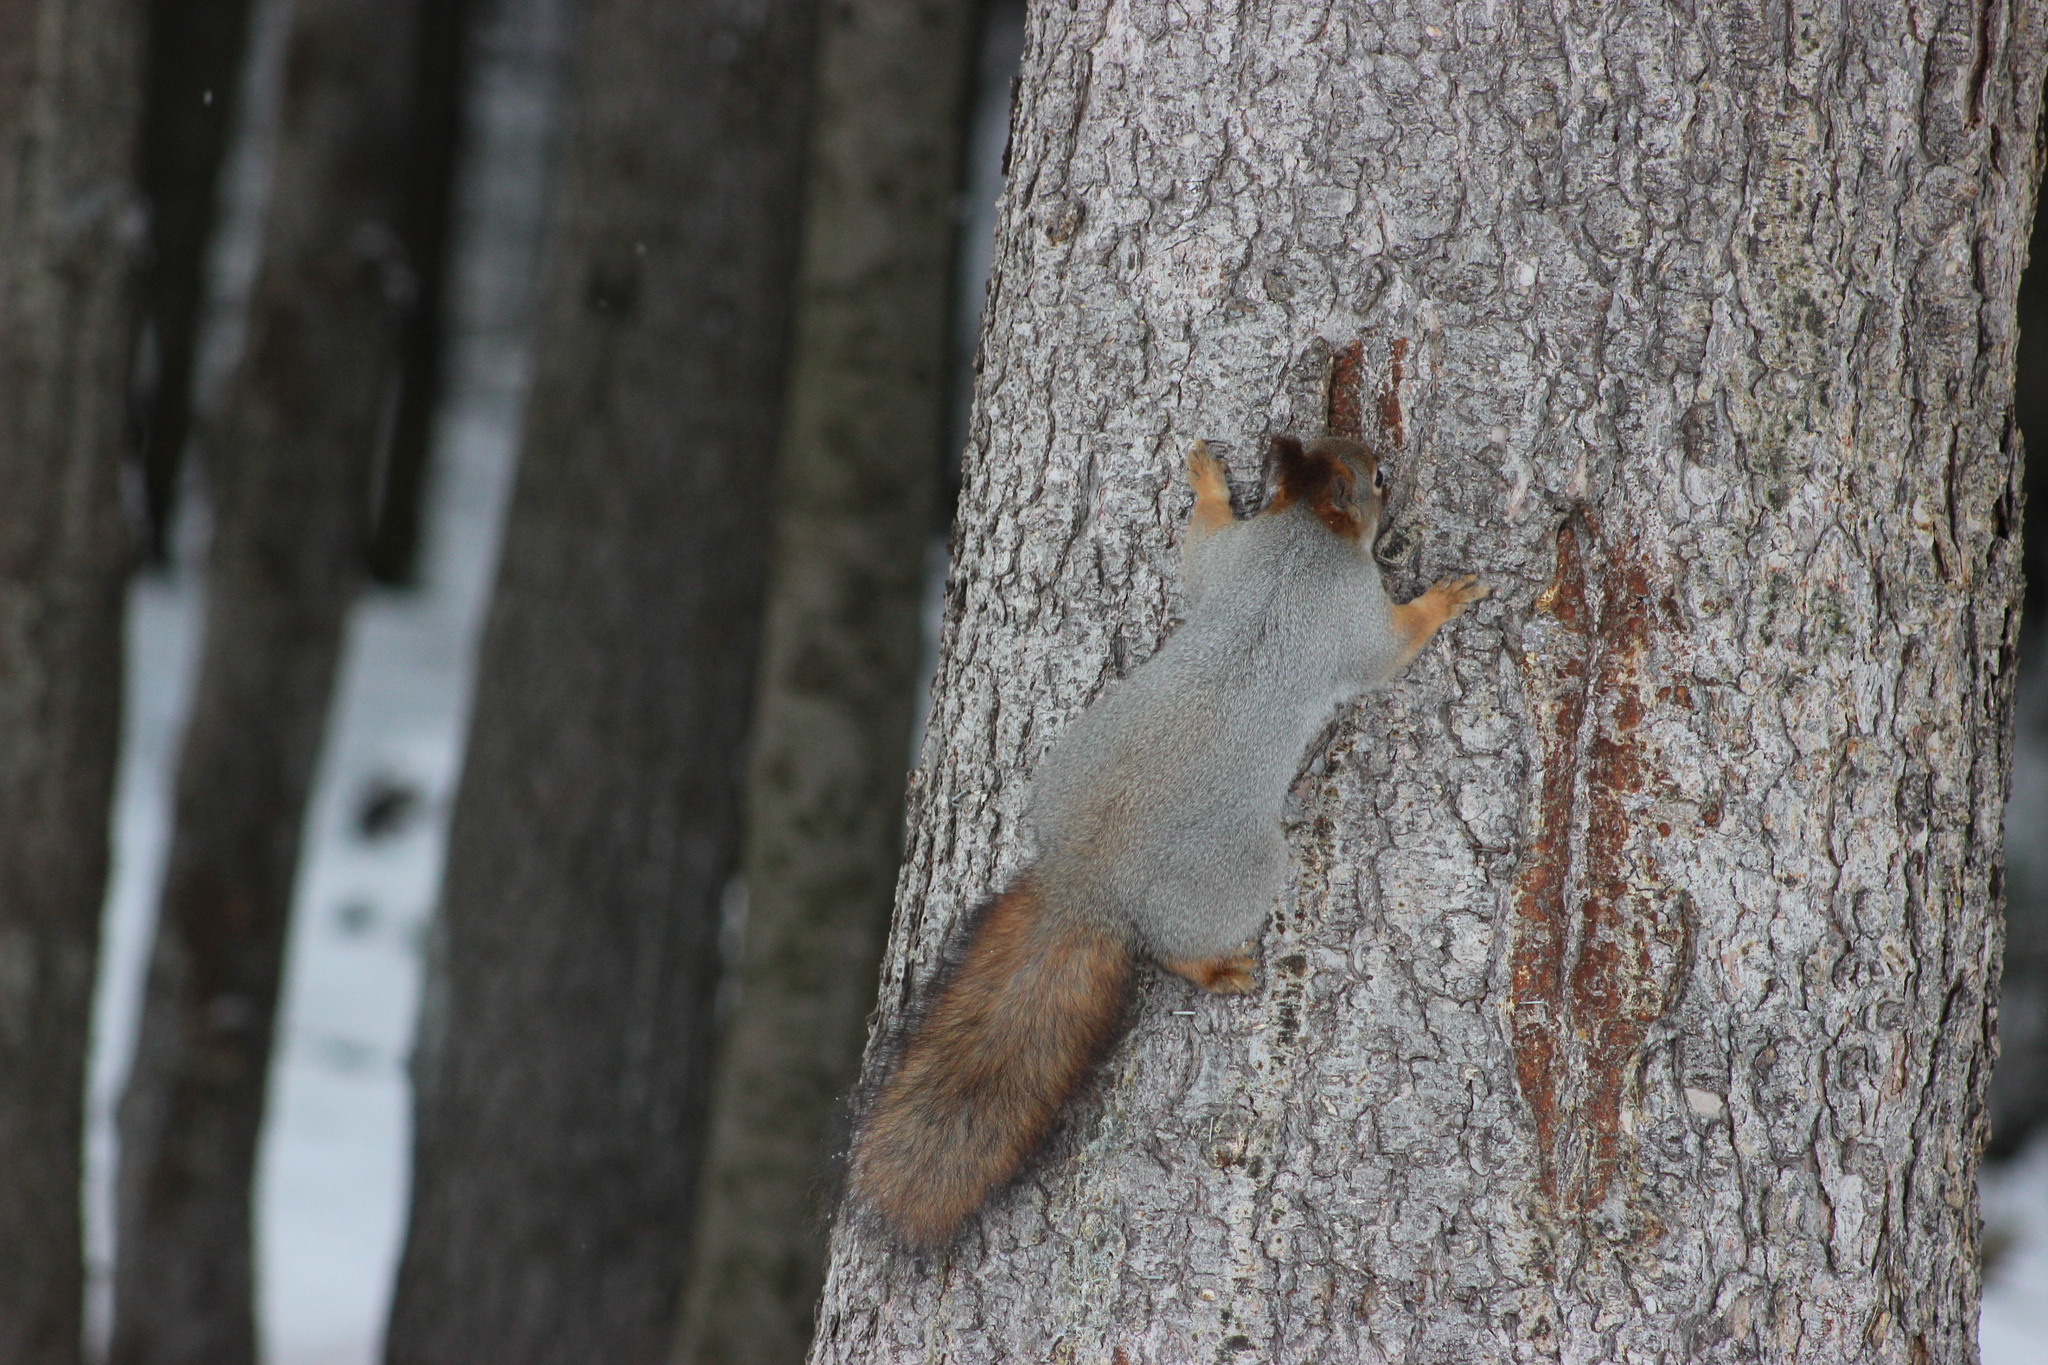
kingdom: Animalia
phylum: Chordata
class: Mammalia
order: Rodentia
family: Sciuridae
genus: Sciurus
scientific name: Sciurus vulgaris
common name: Eurasian red squirrel
